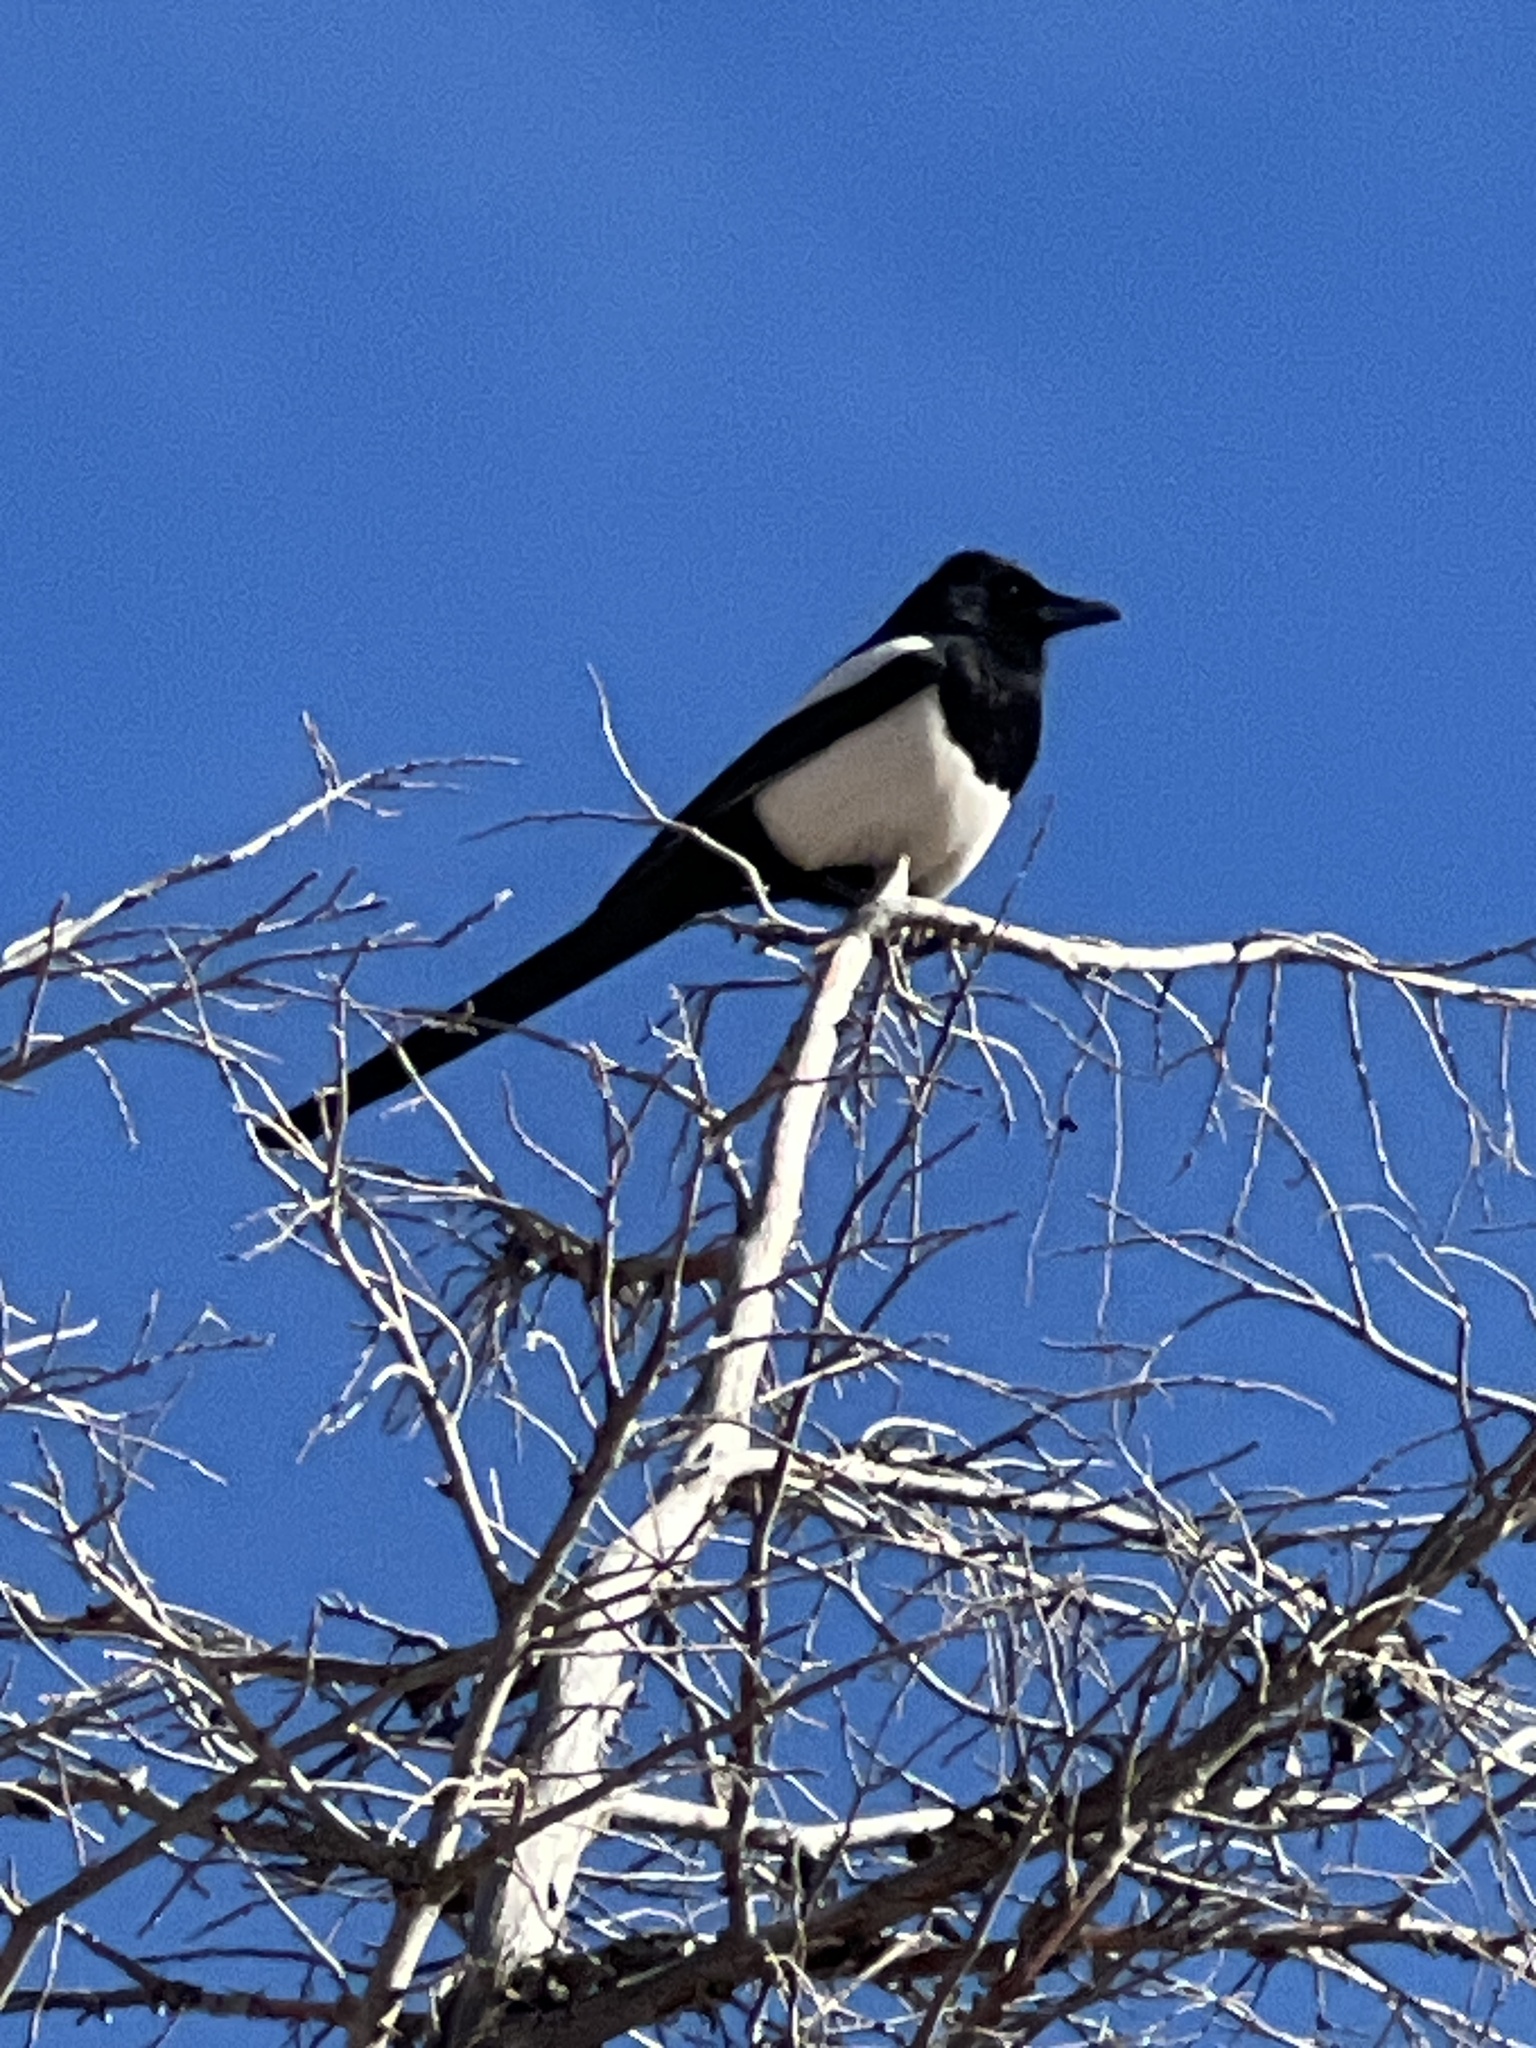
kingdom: Animalia
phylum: Chordata
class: Aves
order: Passeriformes
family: Corvidae
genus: Pica
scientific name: Pica hudsonia
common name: Black-billed magpie
